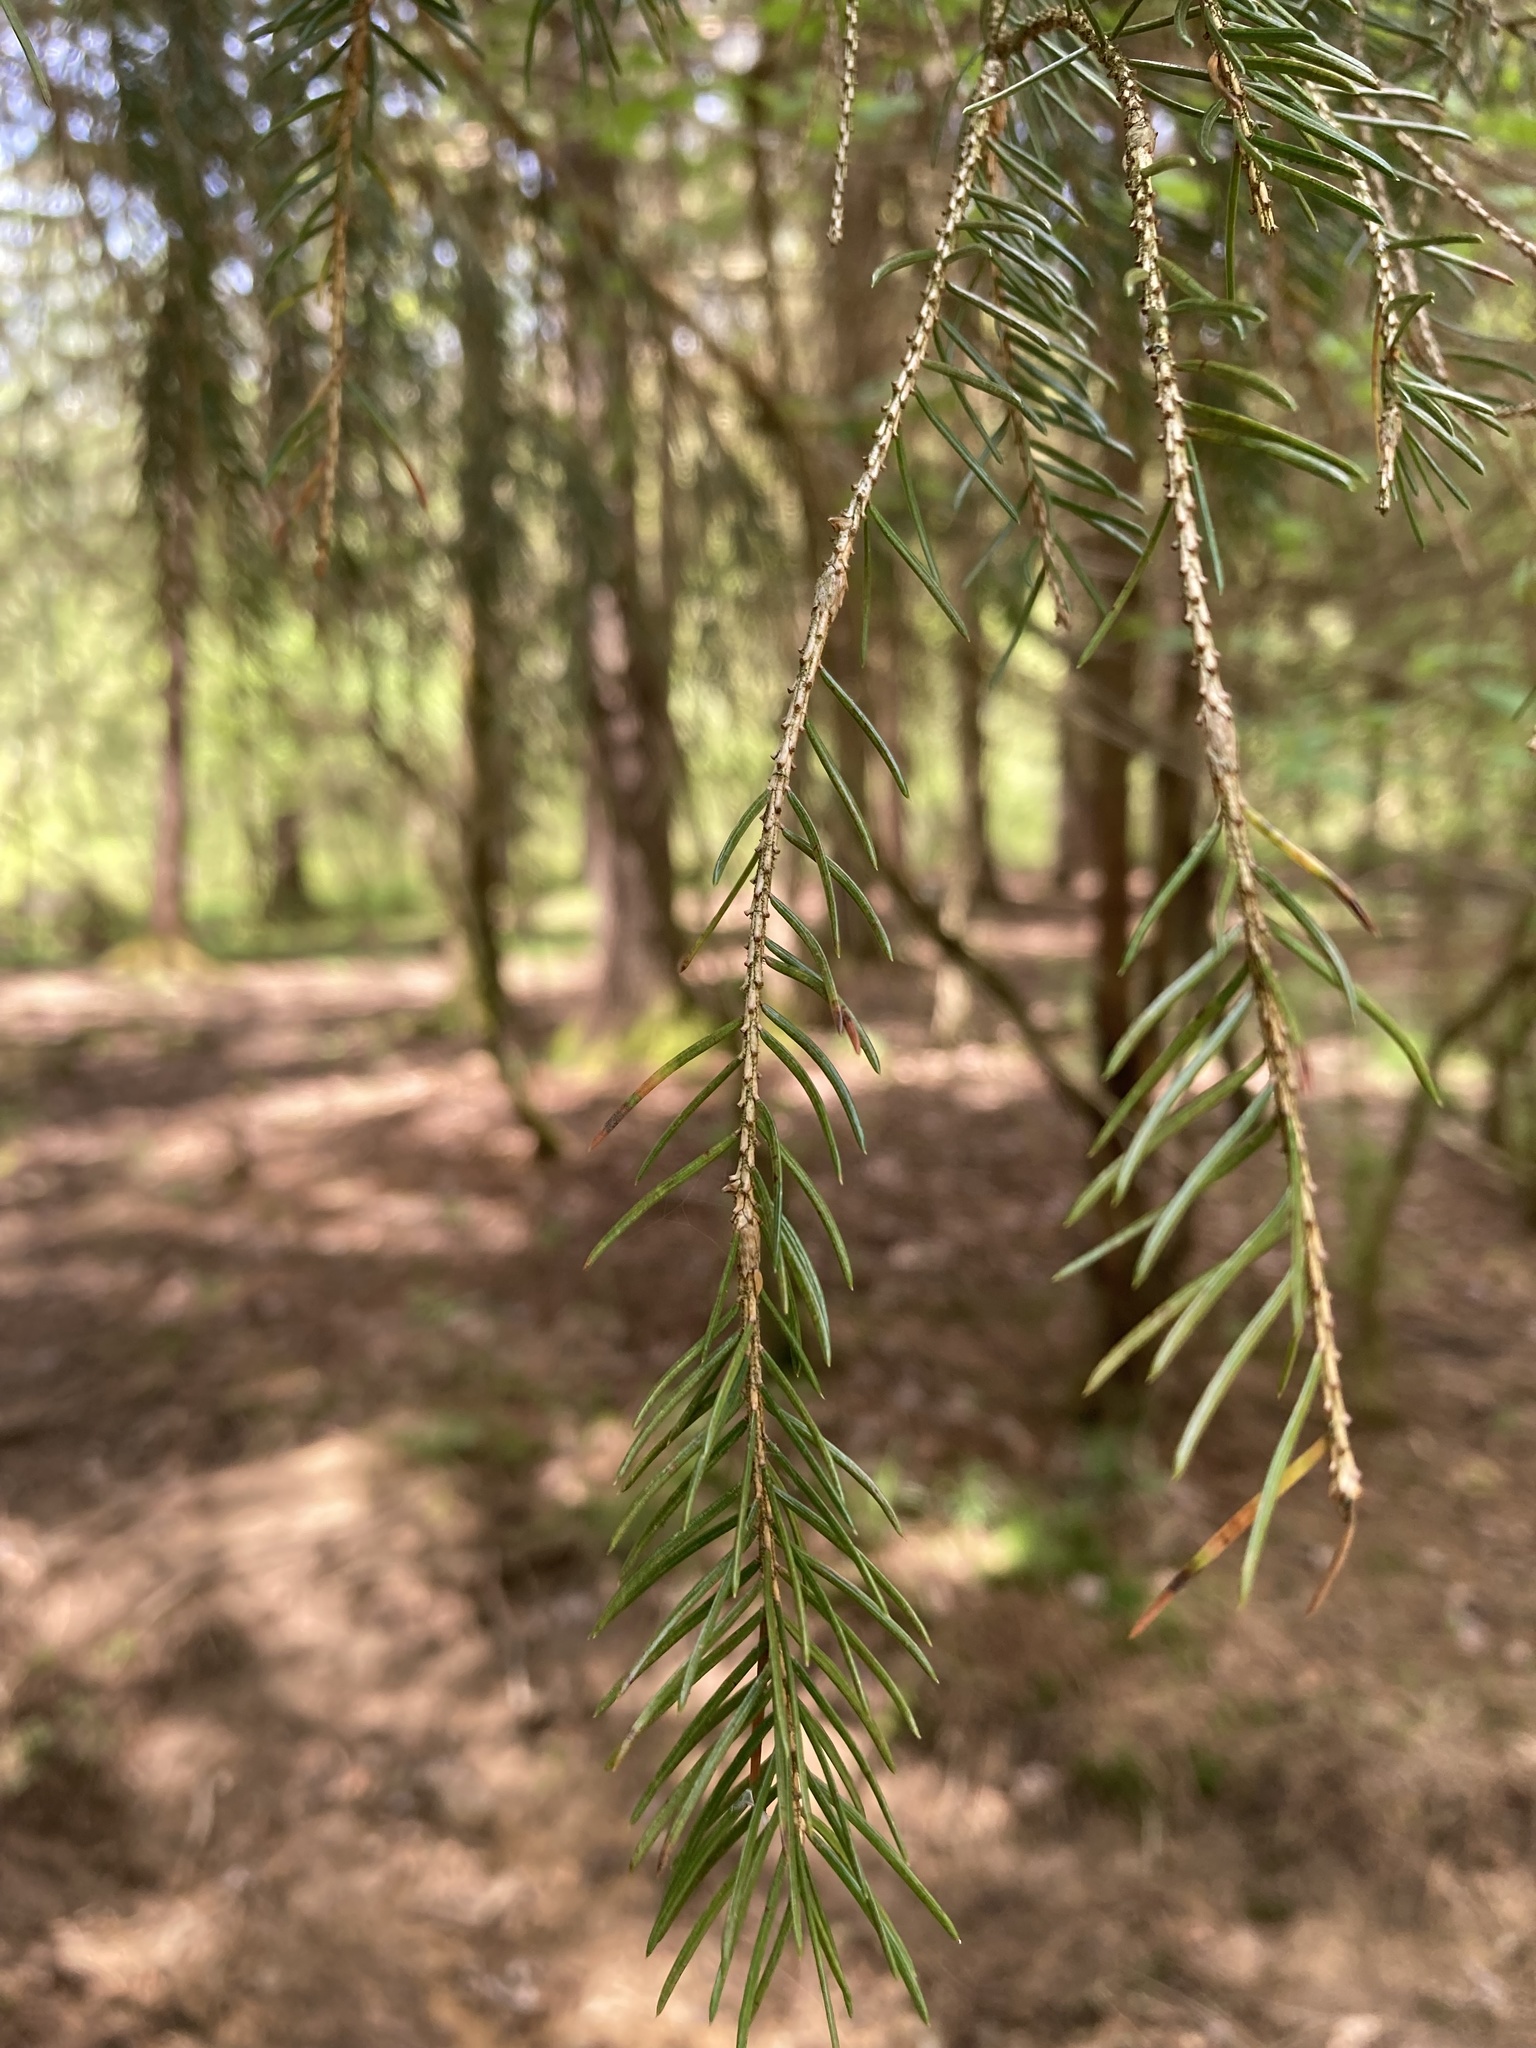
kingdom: Plantae
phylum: Tracheophyta
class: Pinopsida
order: Pinales
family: Pinaceae
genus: Picea
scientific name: Picea abies
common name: Norway spruce
